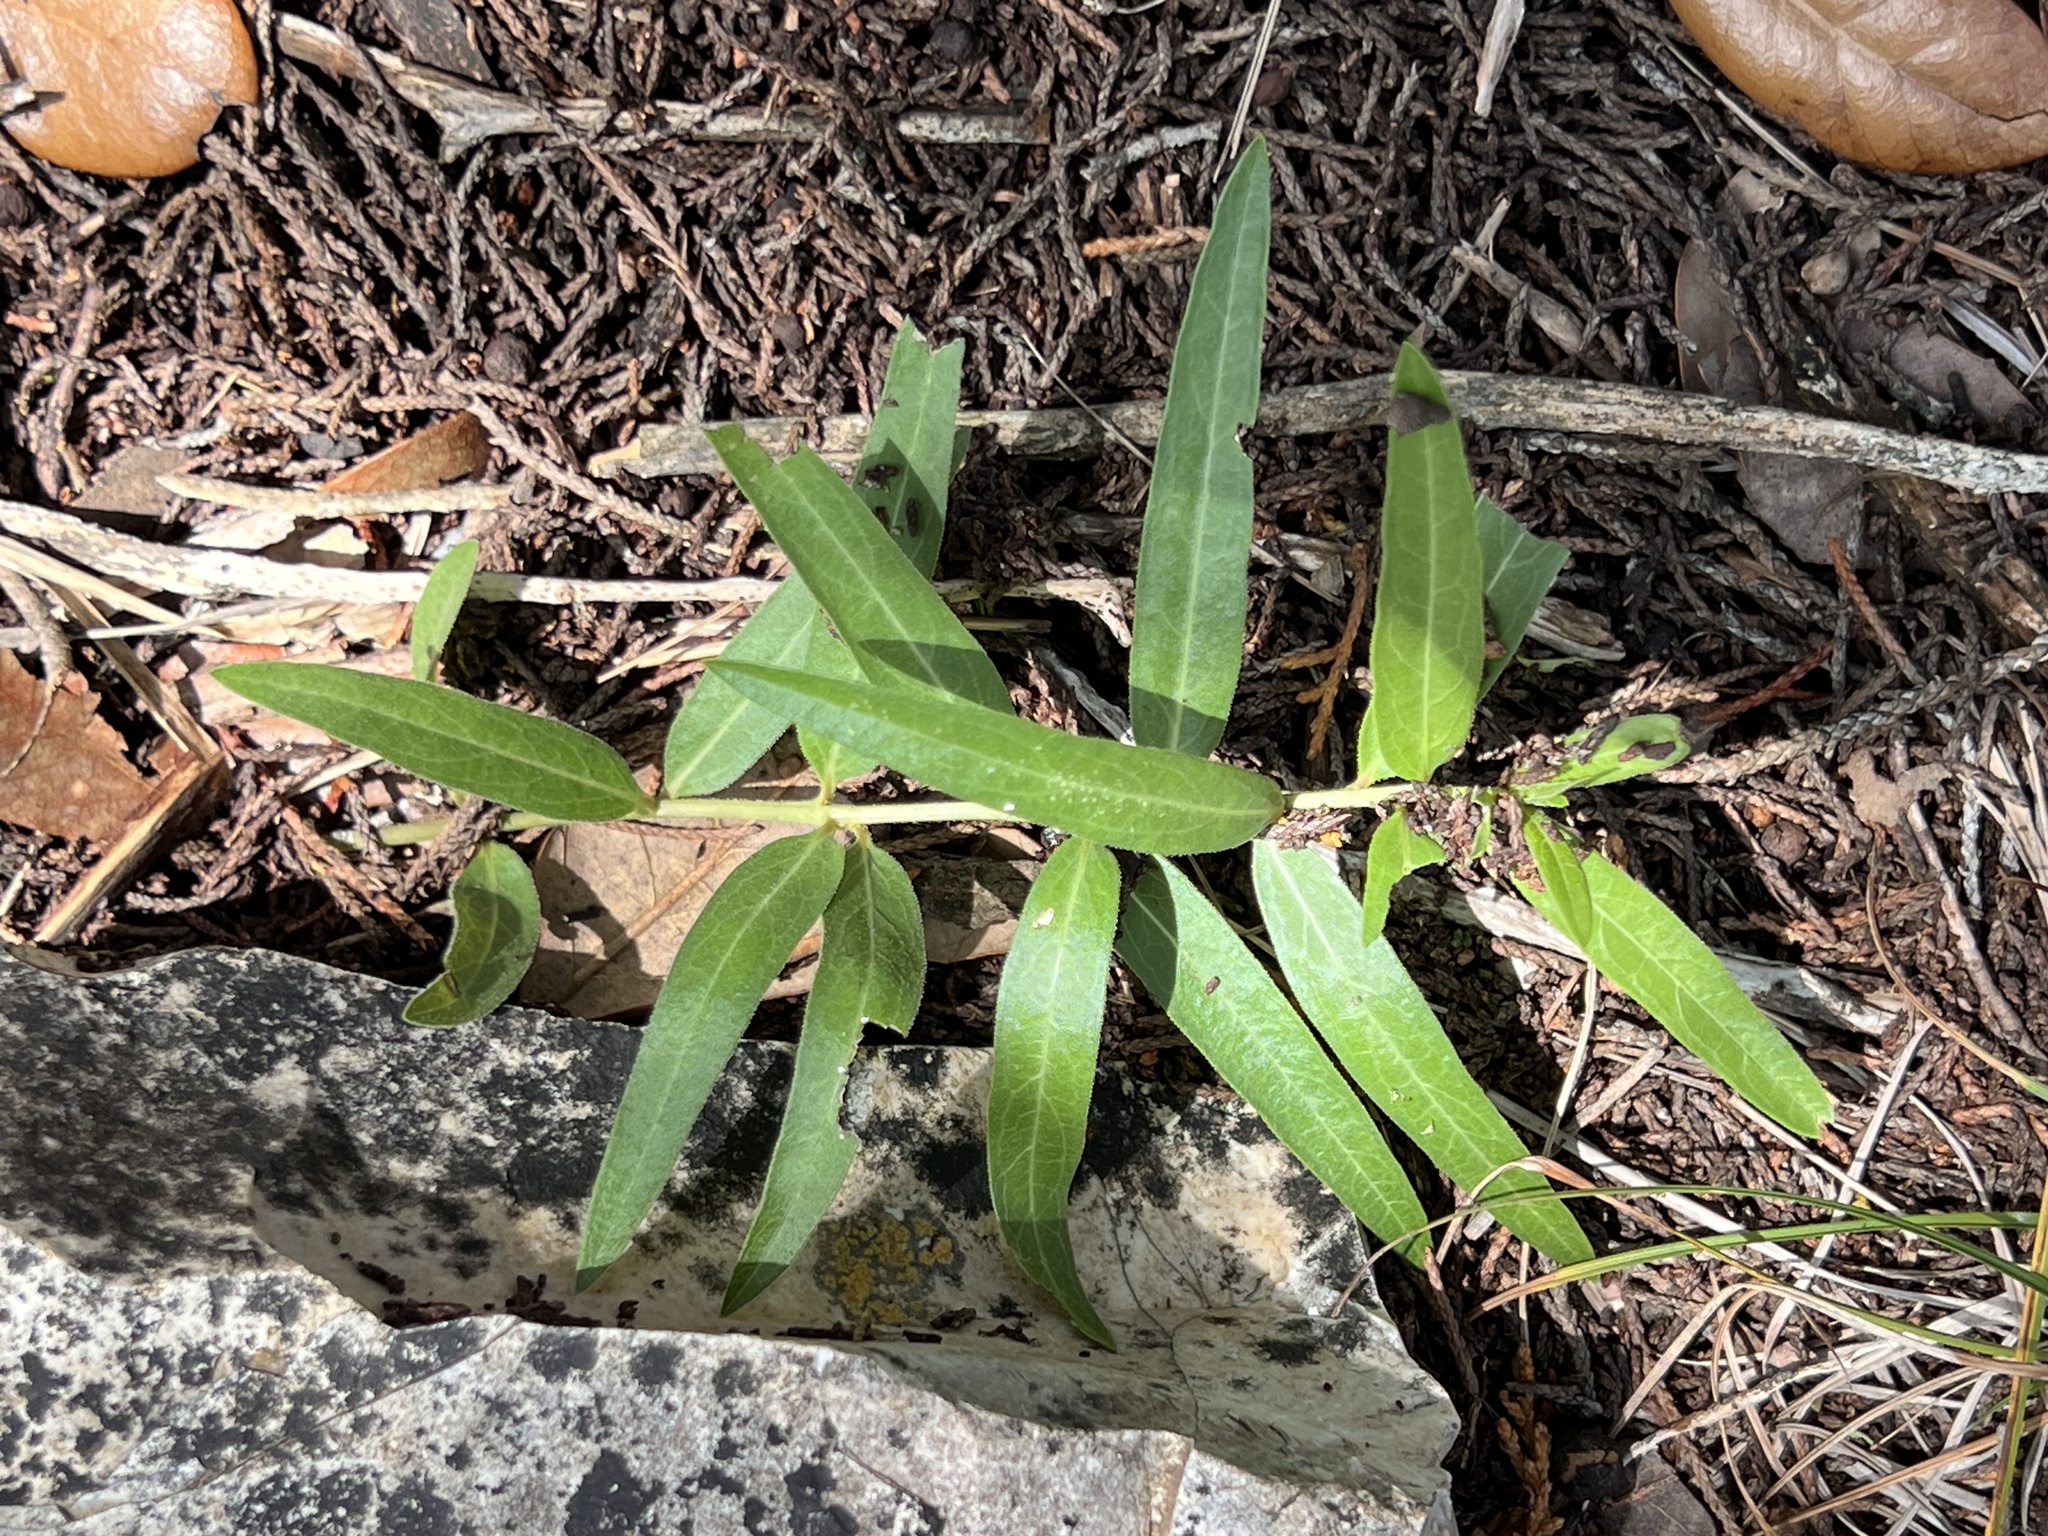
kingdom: Plantae
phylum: Tracheophyta
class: Magnoliopsida
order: Gentianales
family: Apocynaceae
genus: Asclepias
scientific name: Asclepias asperula
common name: Antelope horns
